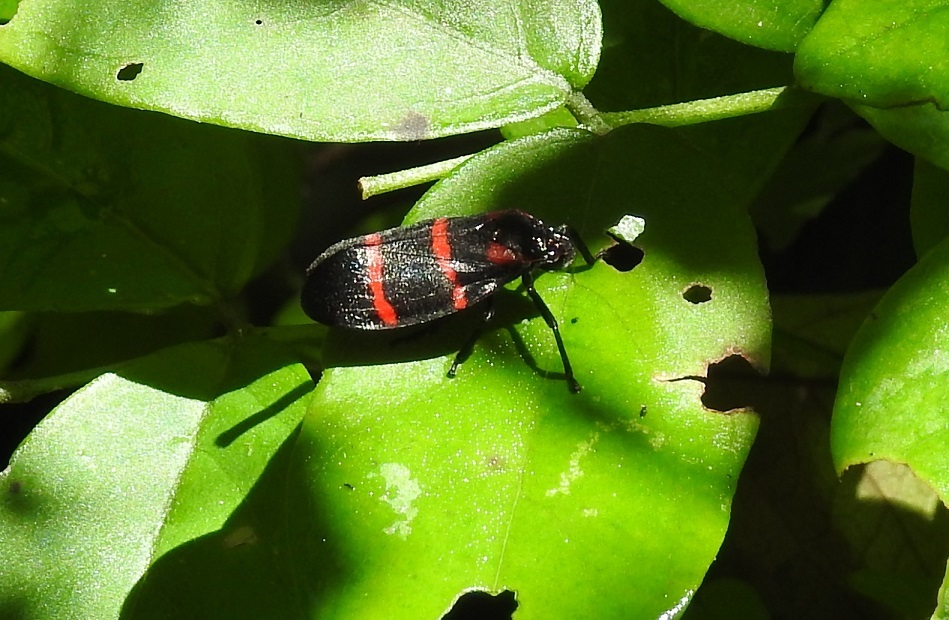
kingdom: Animalia
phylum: Arthropoda
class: Insecta
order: Hemiptera
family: Cercopidae
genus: Huaina
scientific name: Huaina inca
